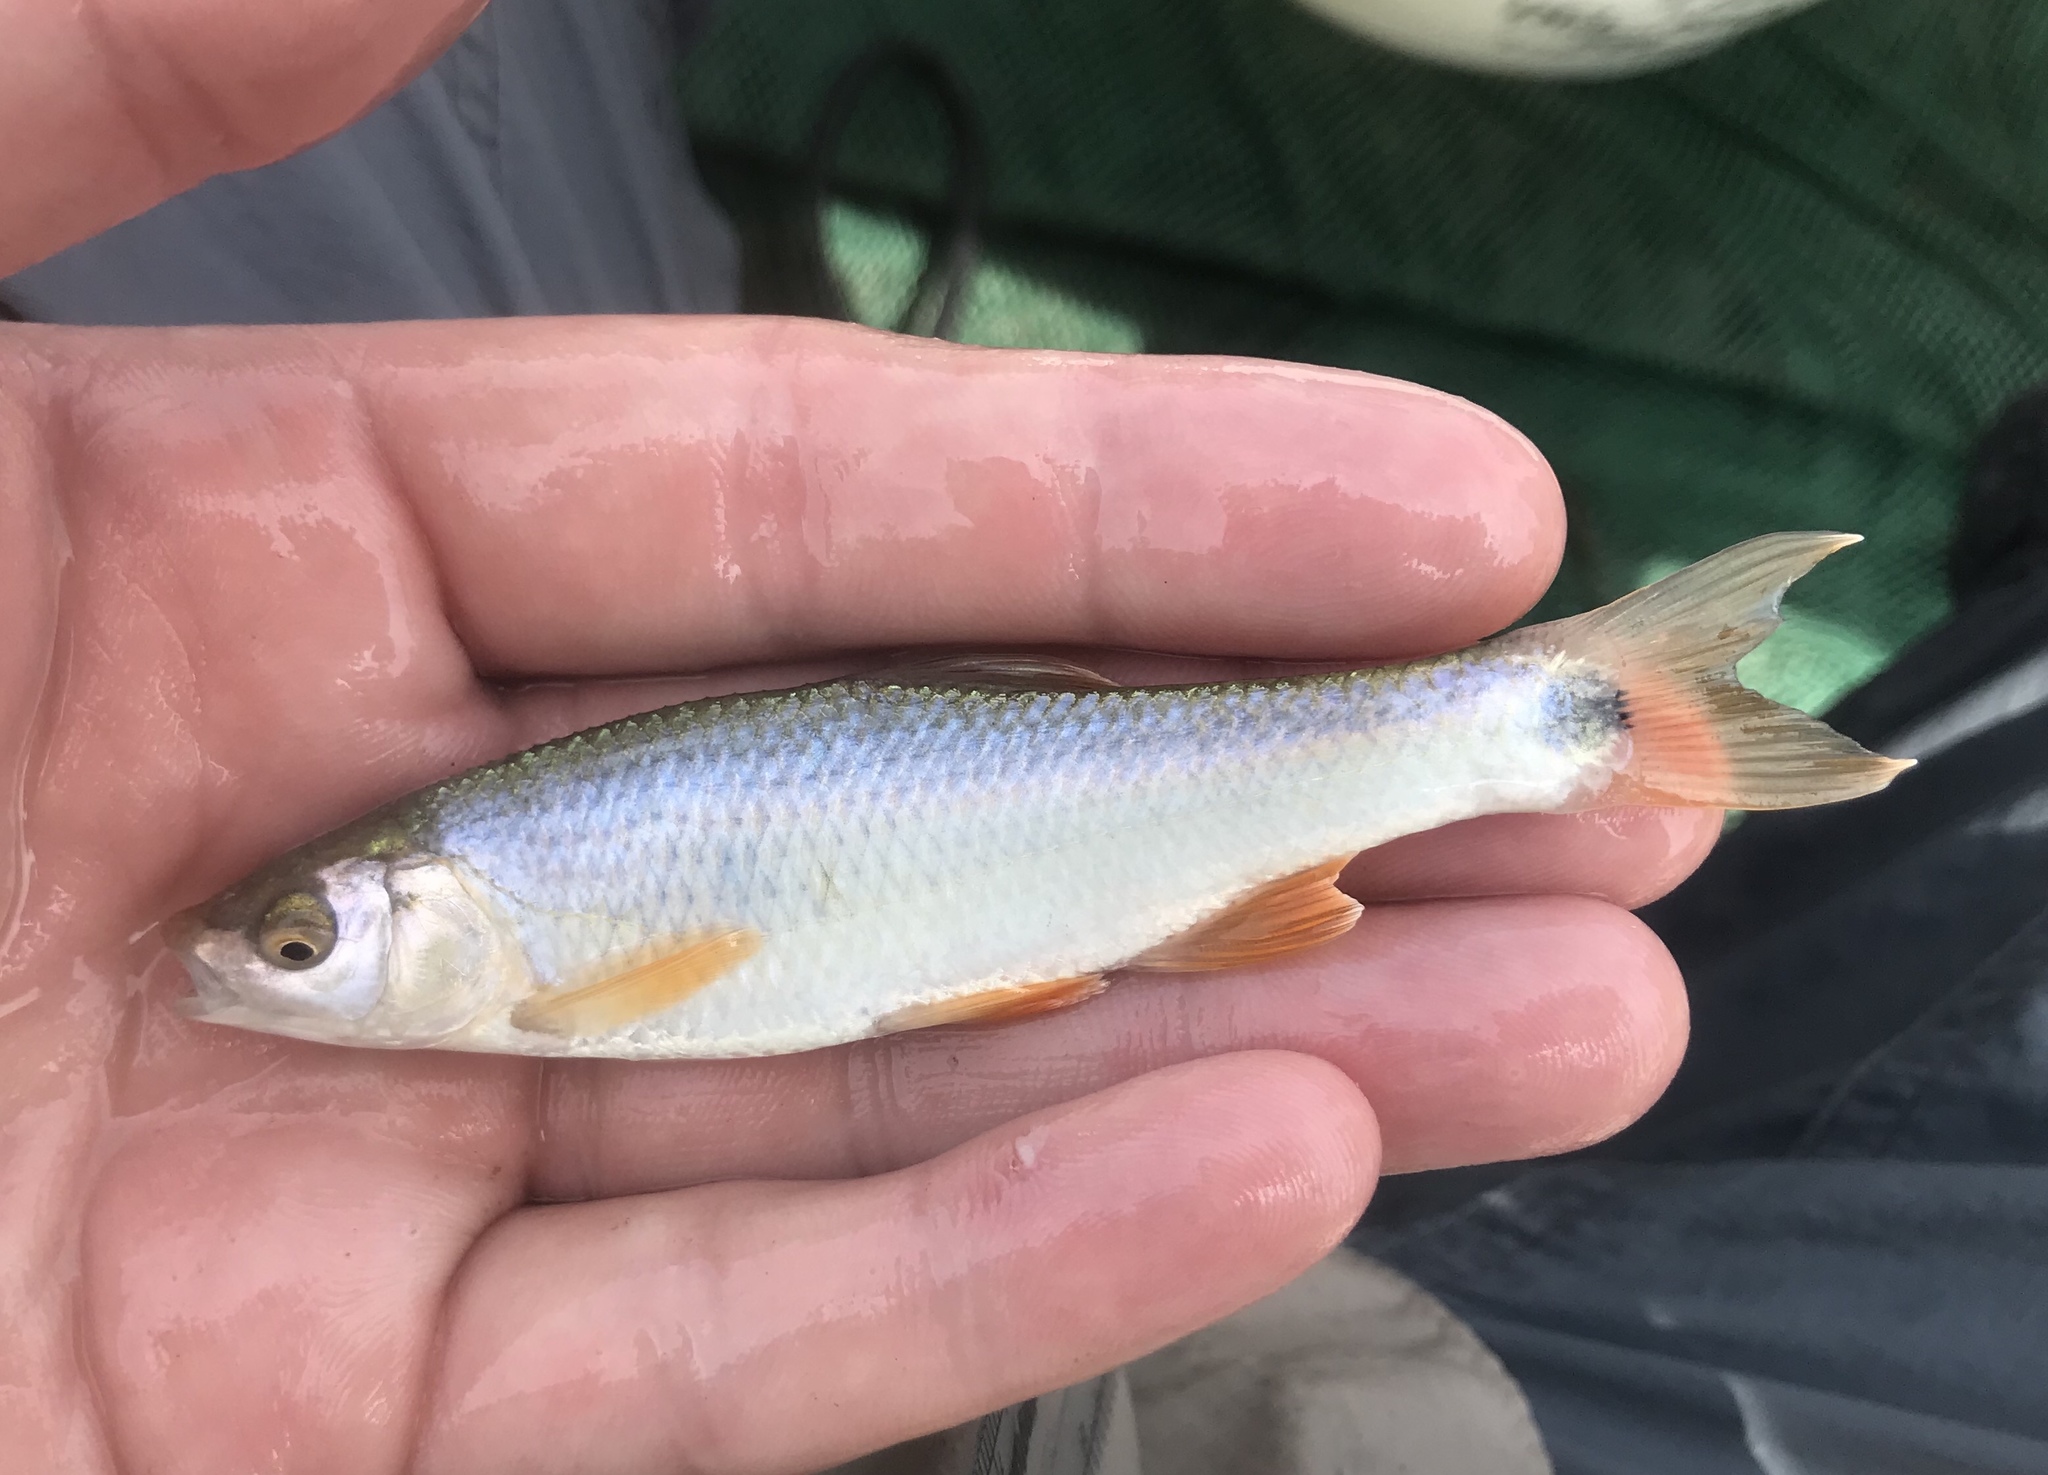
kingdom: Animalia
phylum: Chordata
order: Cypriniformes
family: Cyprinidae
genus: Cyprinella
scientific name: Cyprinella venusta
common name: Blacktail shiner
